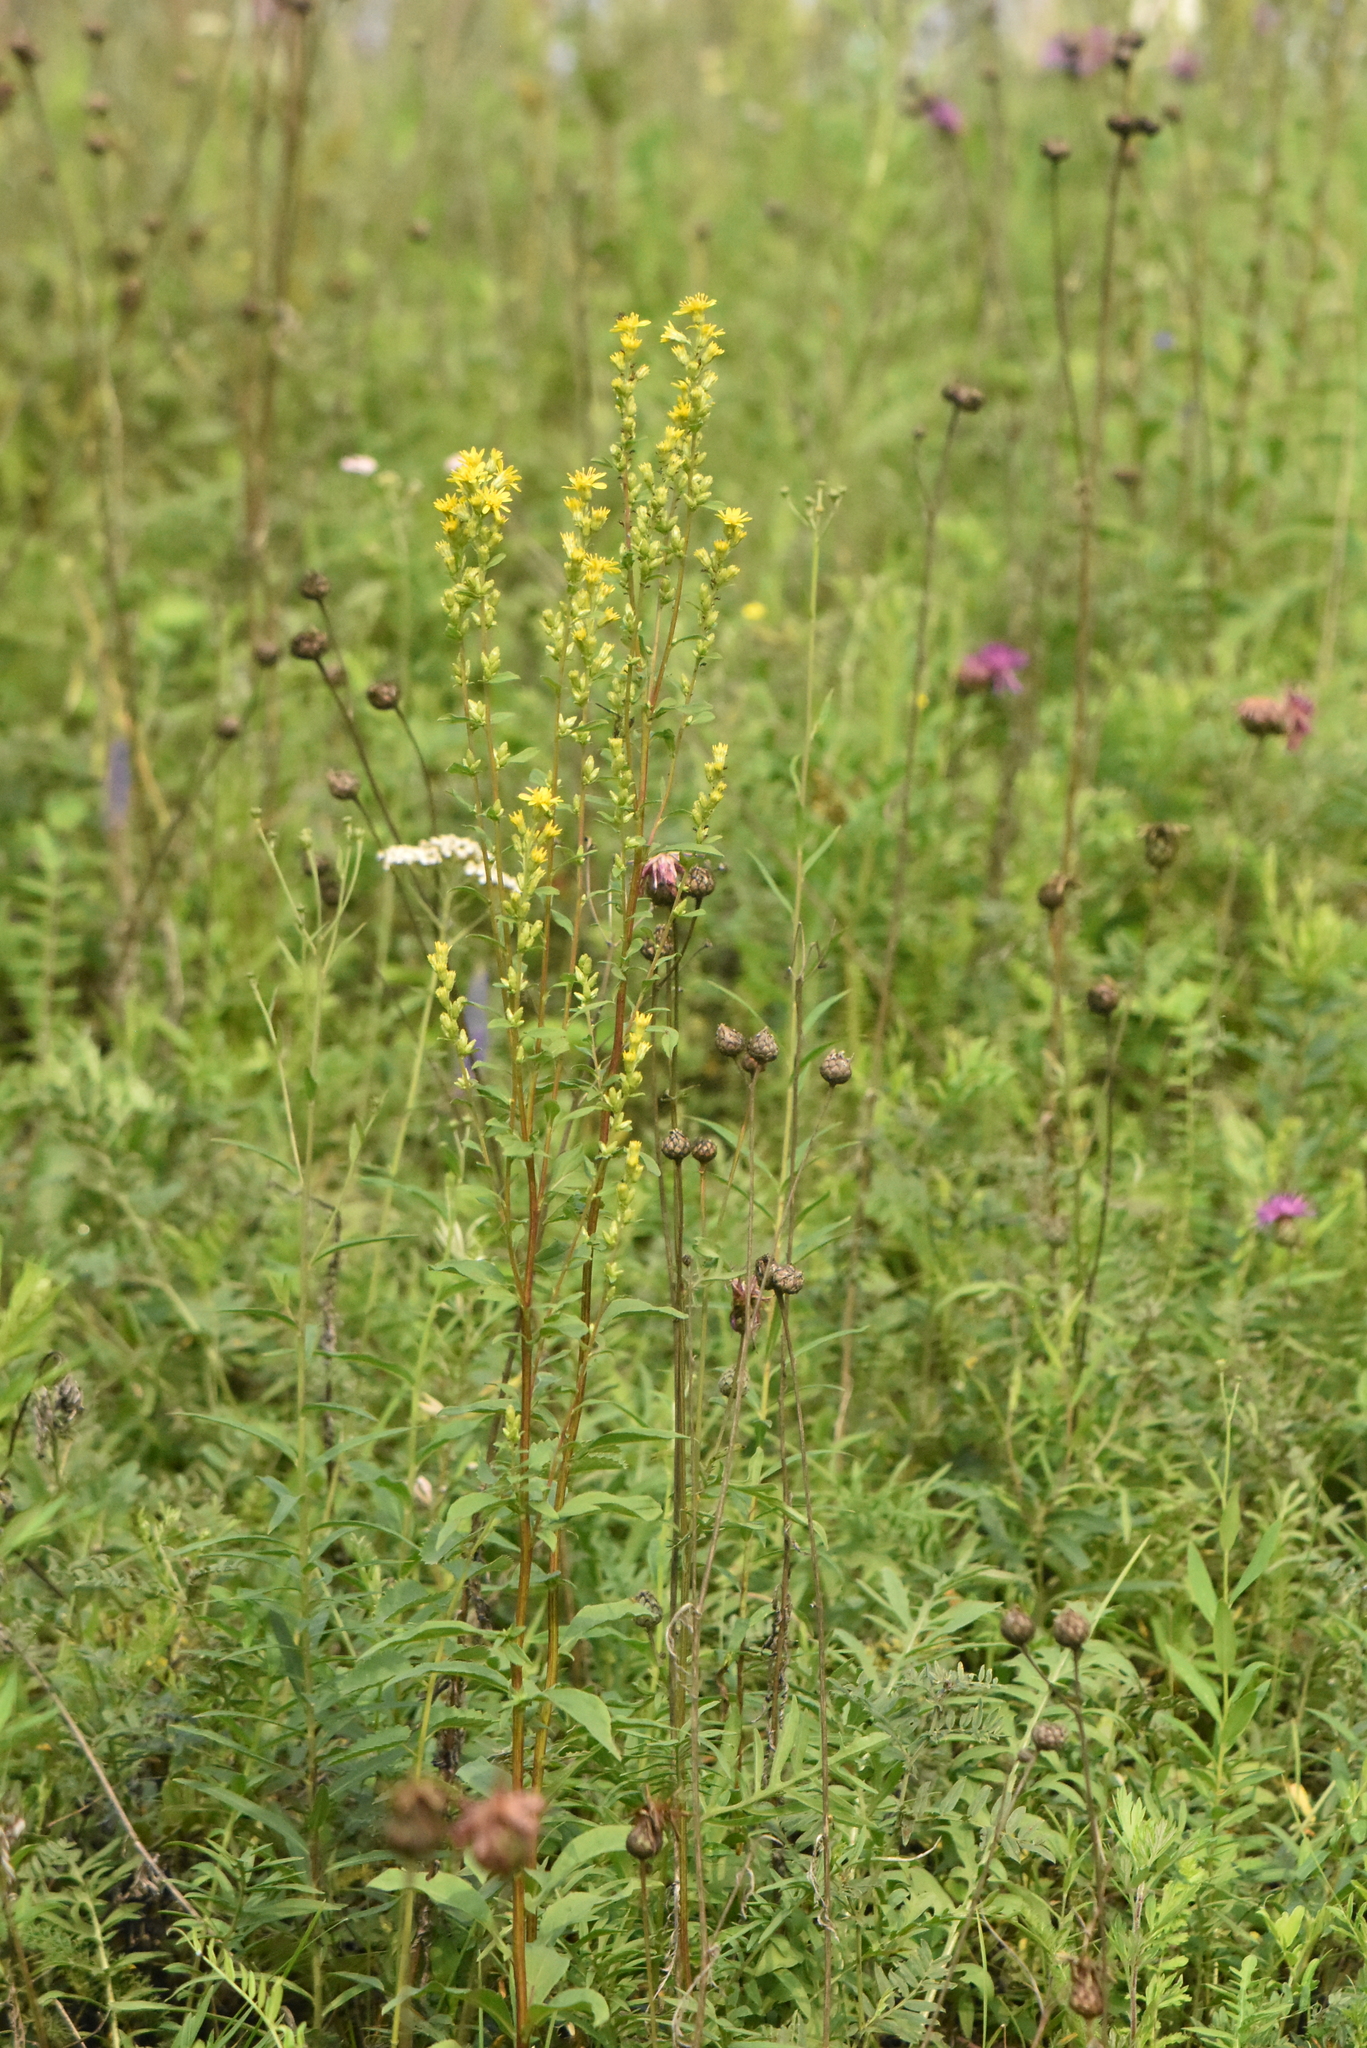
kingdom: Plantae
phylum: Tracheophyta
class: Magnoliopsida
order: Asterales
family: Asteraceae
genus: Solidago
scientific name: Solidago virgaurea
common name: Goldenrod
